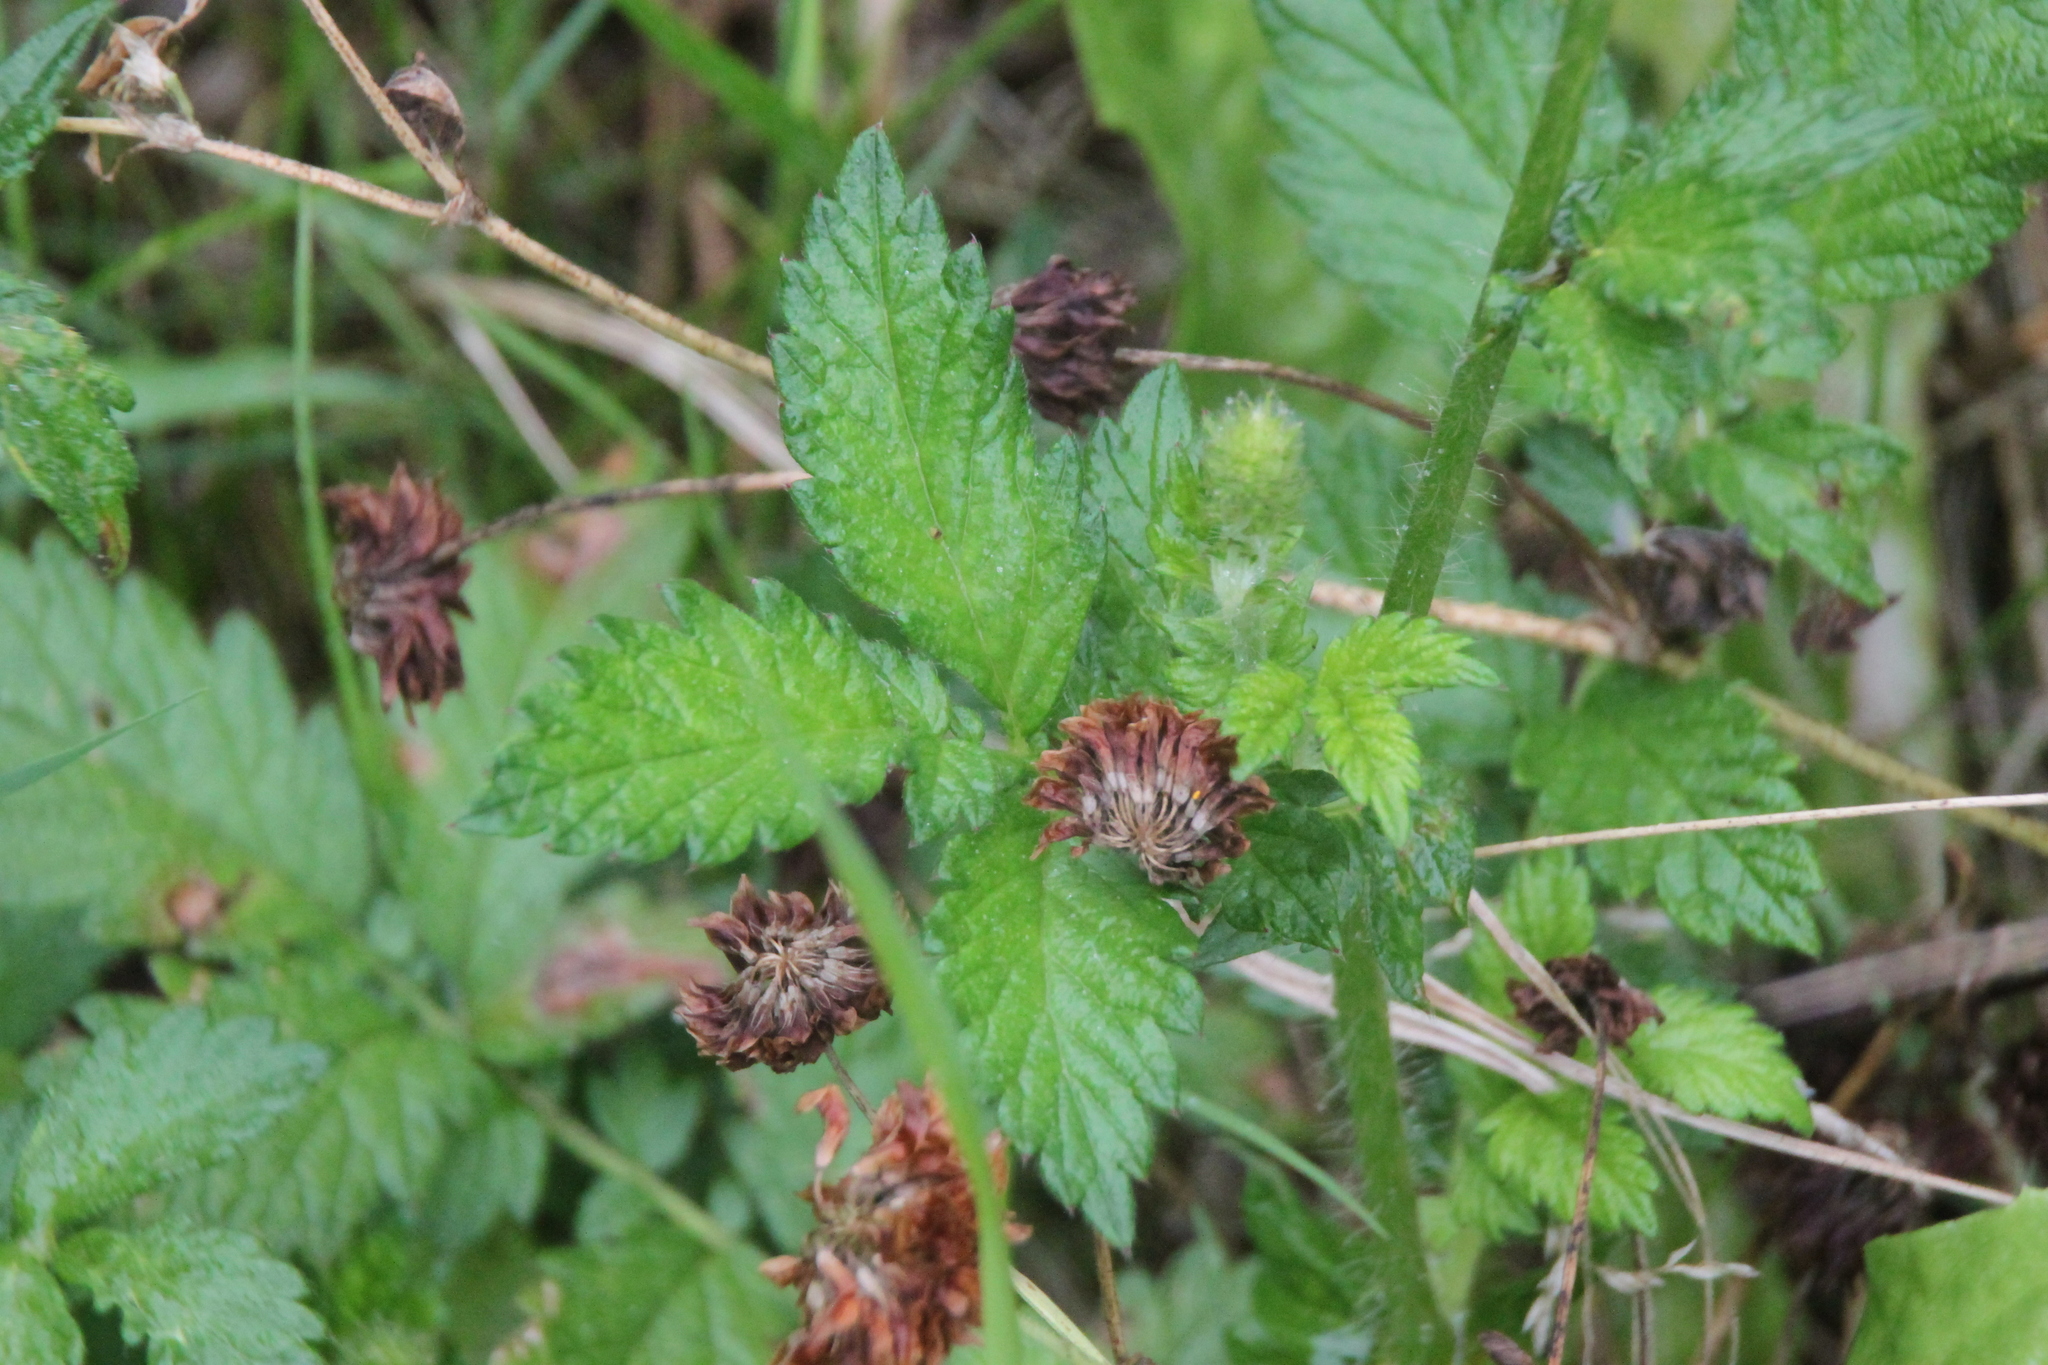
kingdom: Plantae
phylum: Tracheophyta
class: Magnoliopsida
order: Rosales
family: Rosaceae
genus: Agrimonia
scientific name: Agrimonia eupatoria
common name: Agrimony
